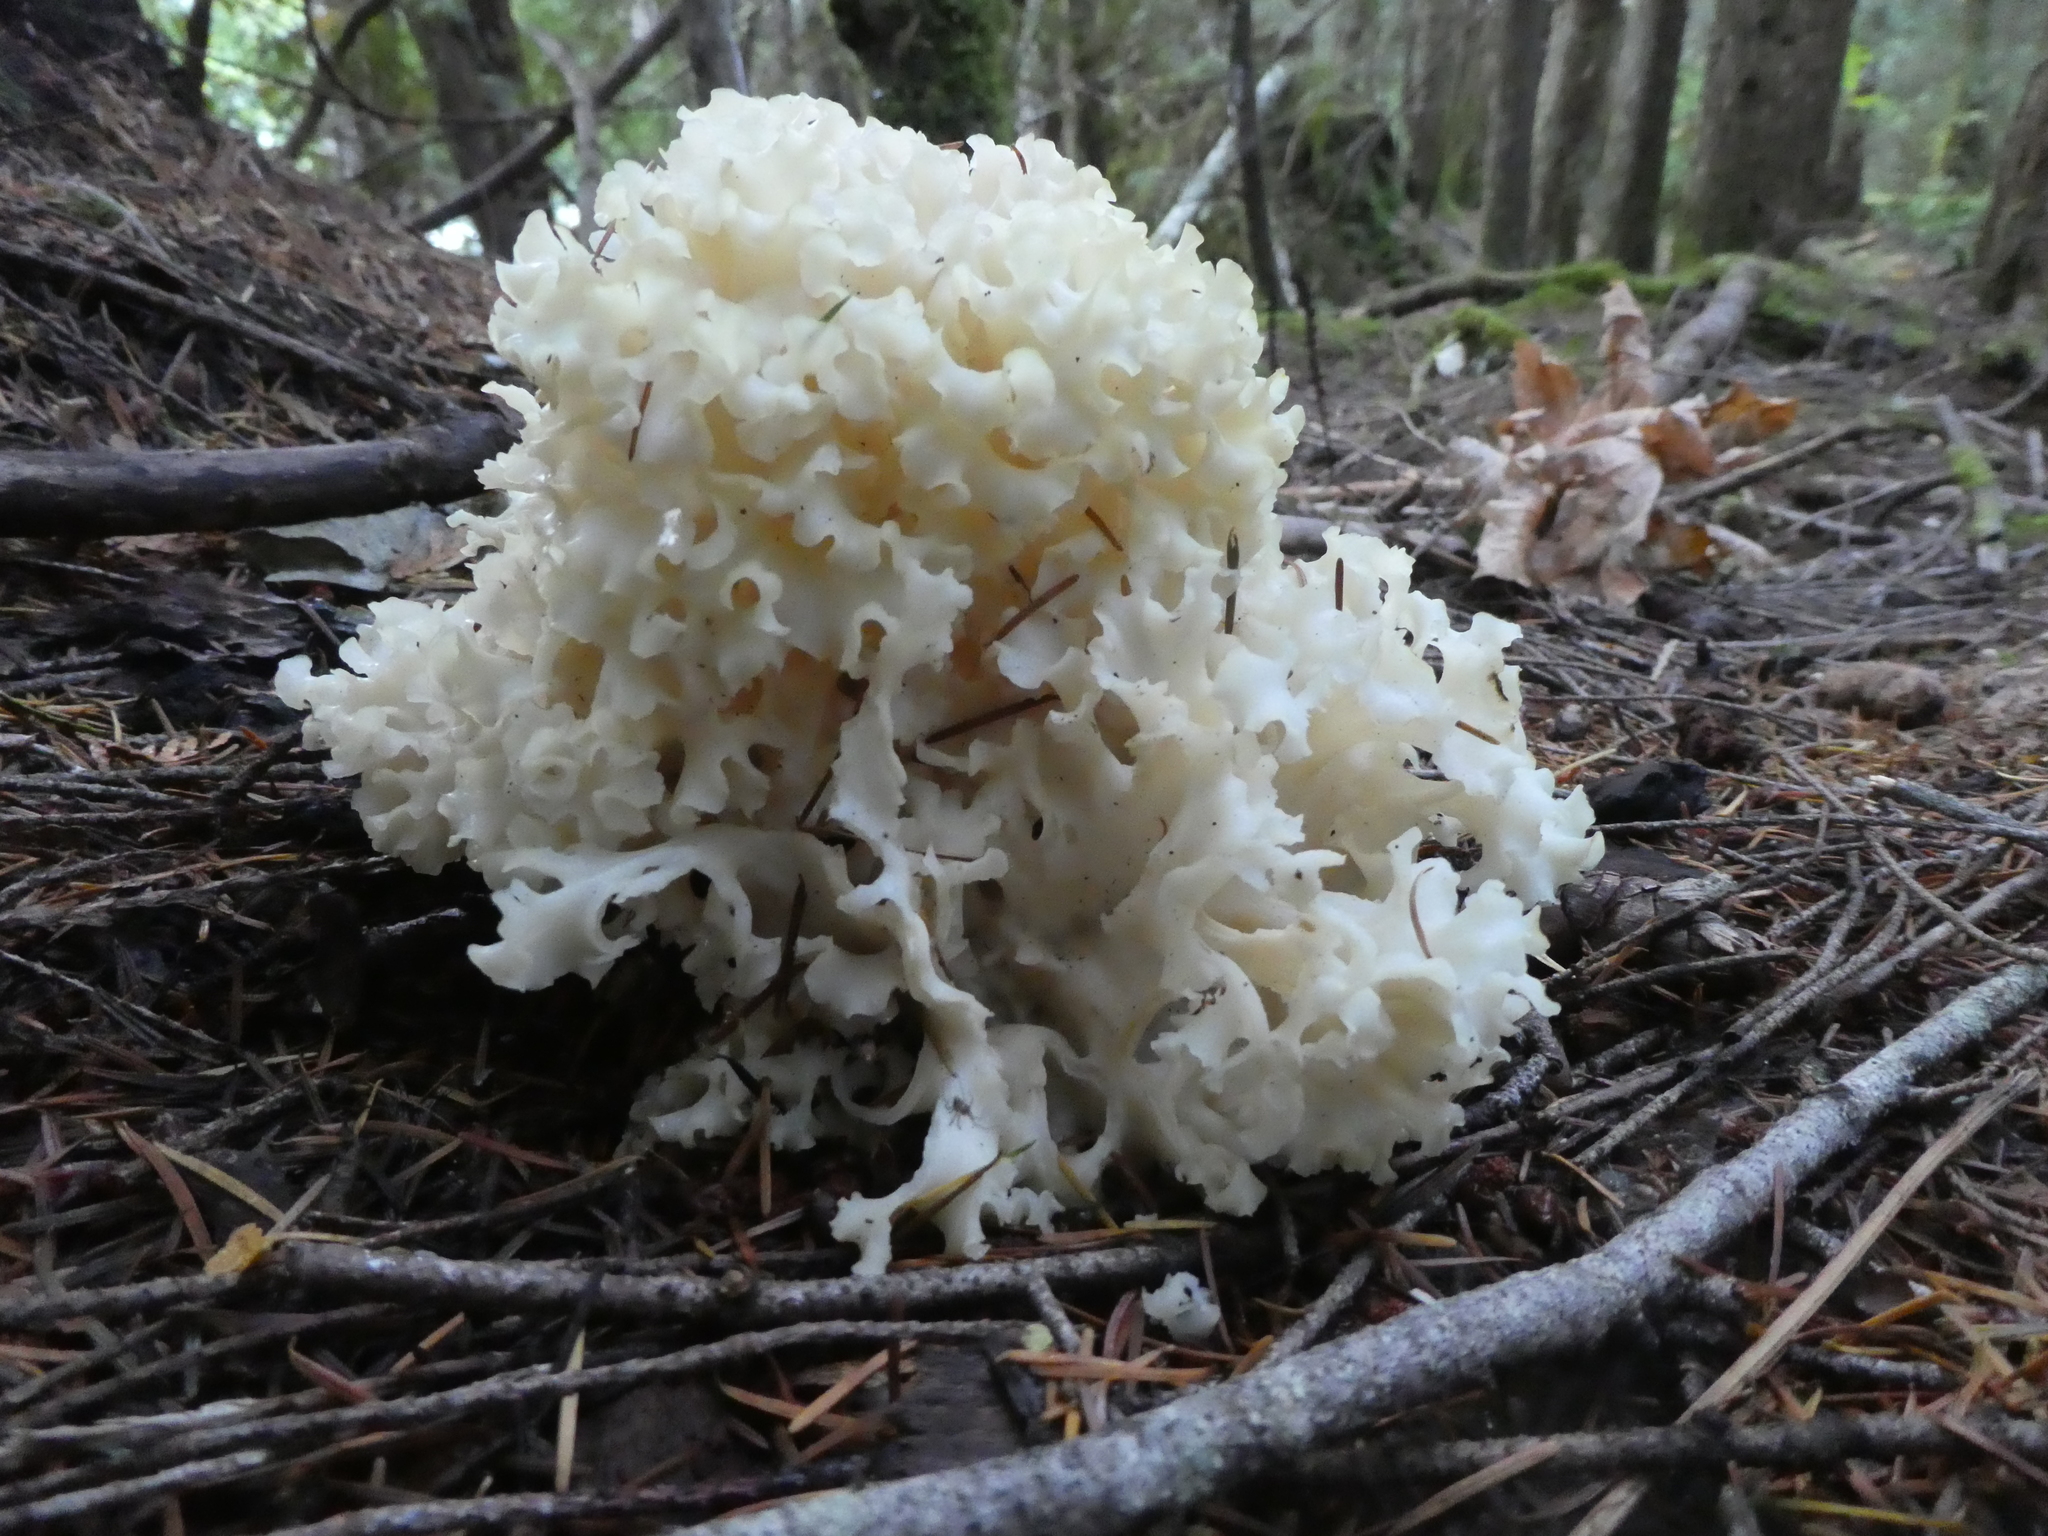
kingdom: Fungi
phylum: Basidiomycota
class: Agaricomycetes
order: Polyporales
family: Sparassidaceae
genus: Sparassis
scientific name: Sparassis radicata
